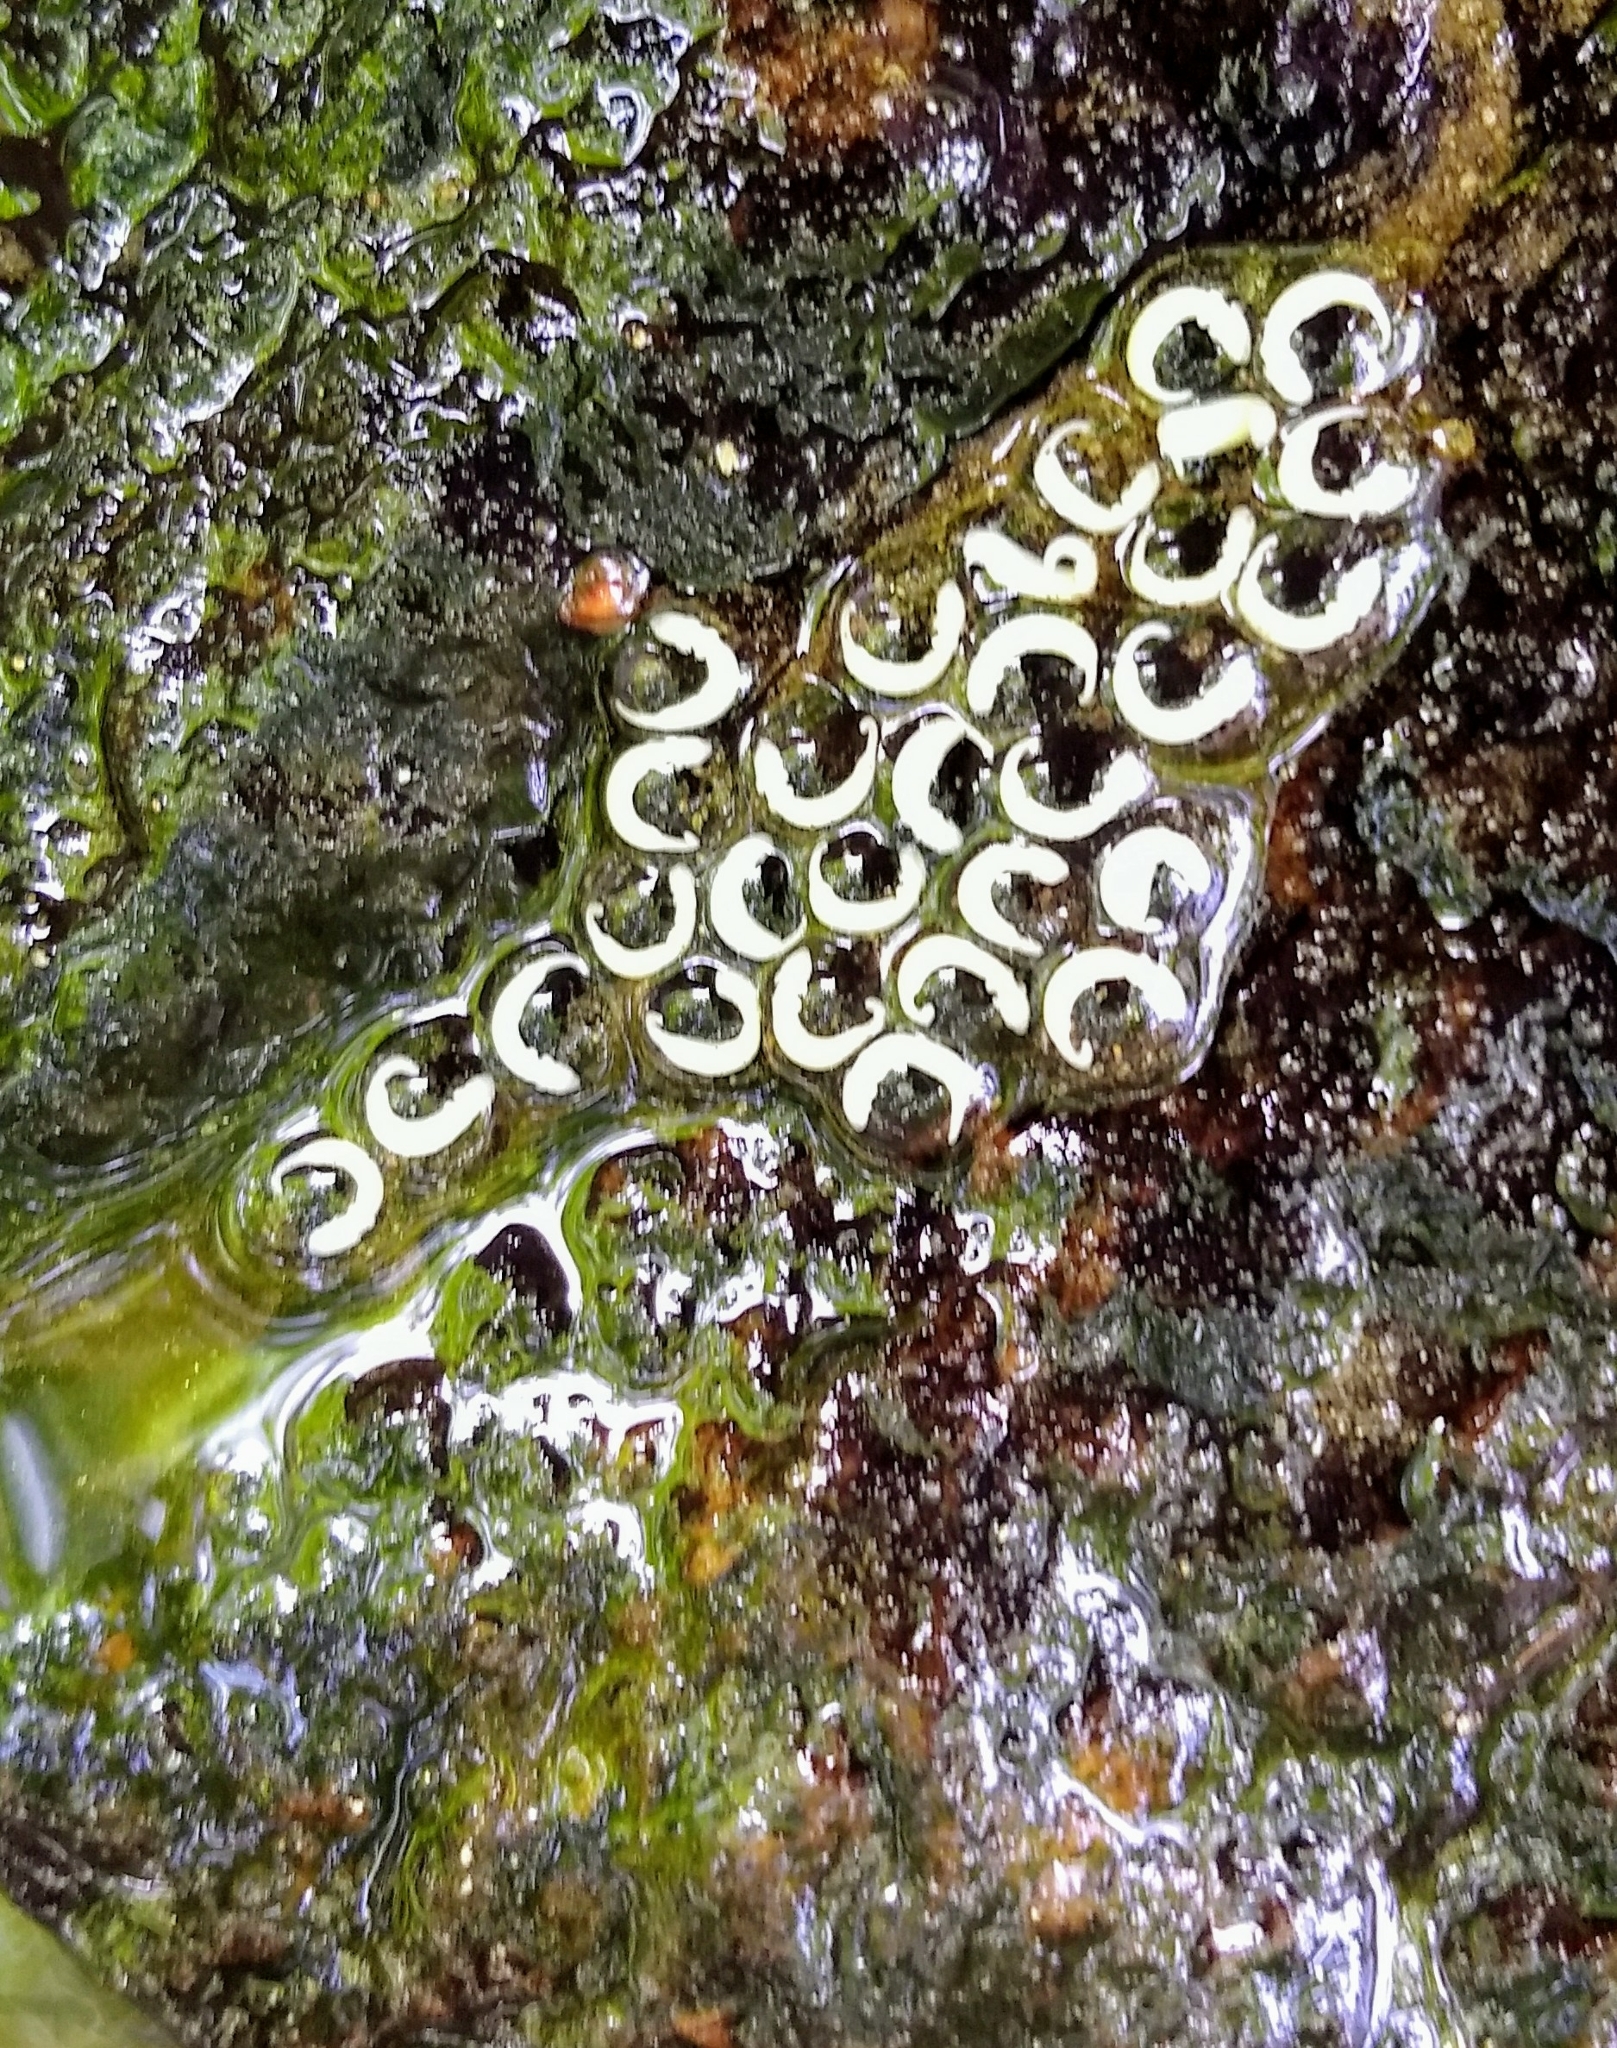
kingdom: Animalia
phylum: Chordata
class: Amphibia
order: Caudata
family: Plethodontidae
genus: Eurycea
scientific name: Eurycea bislineata
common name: Northern two-lined salamander
